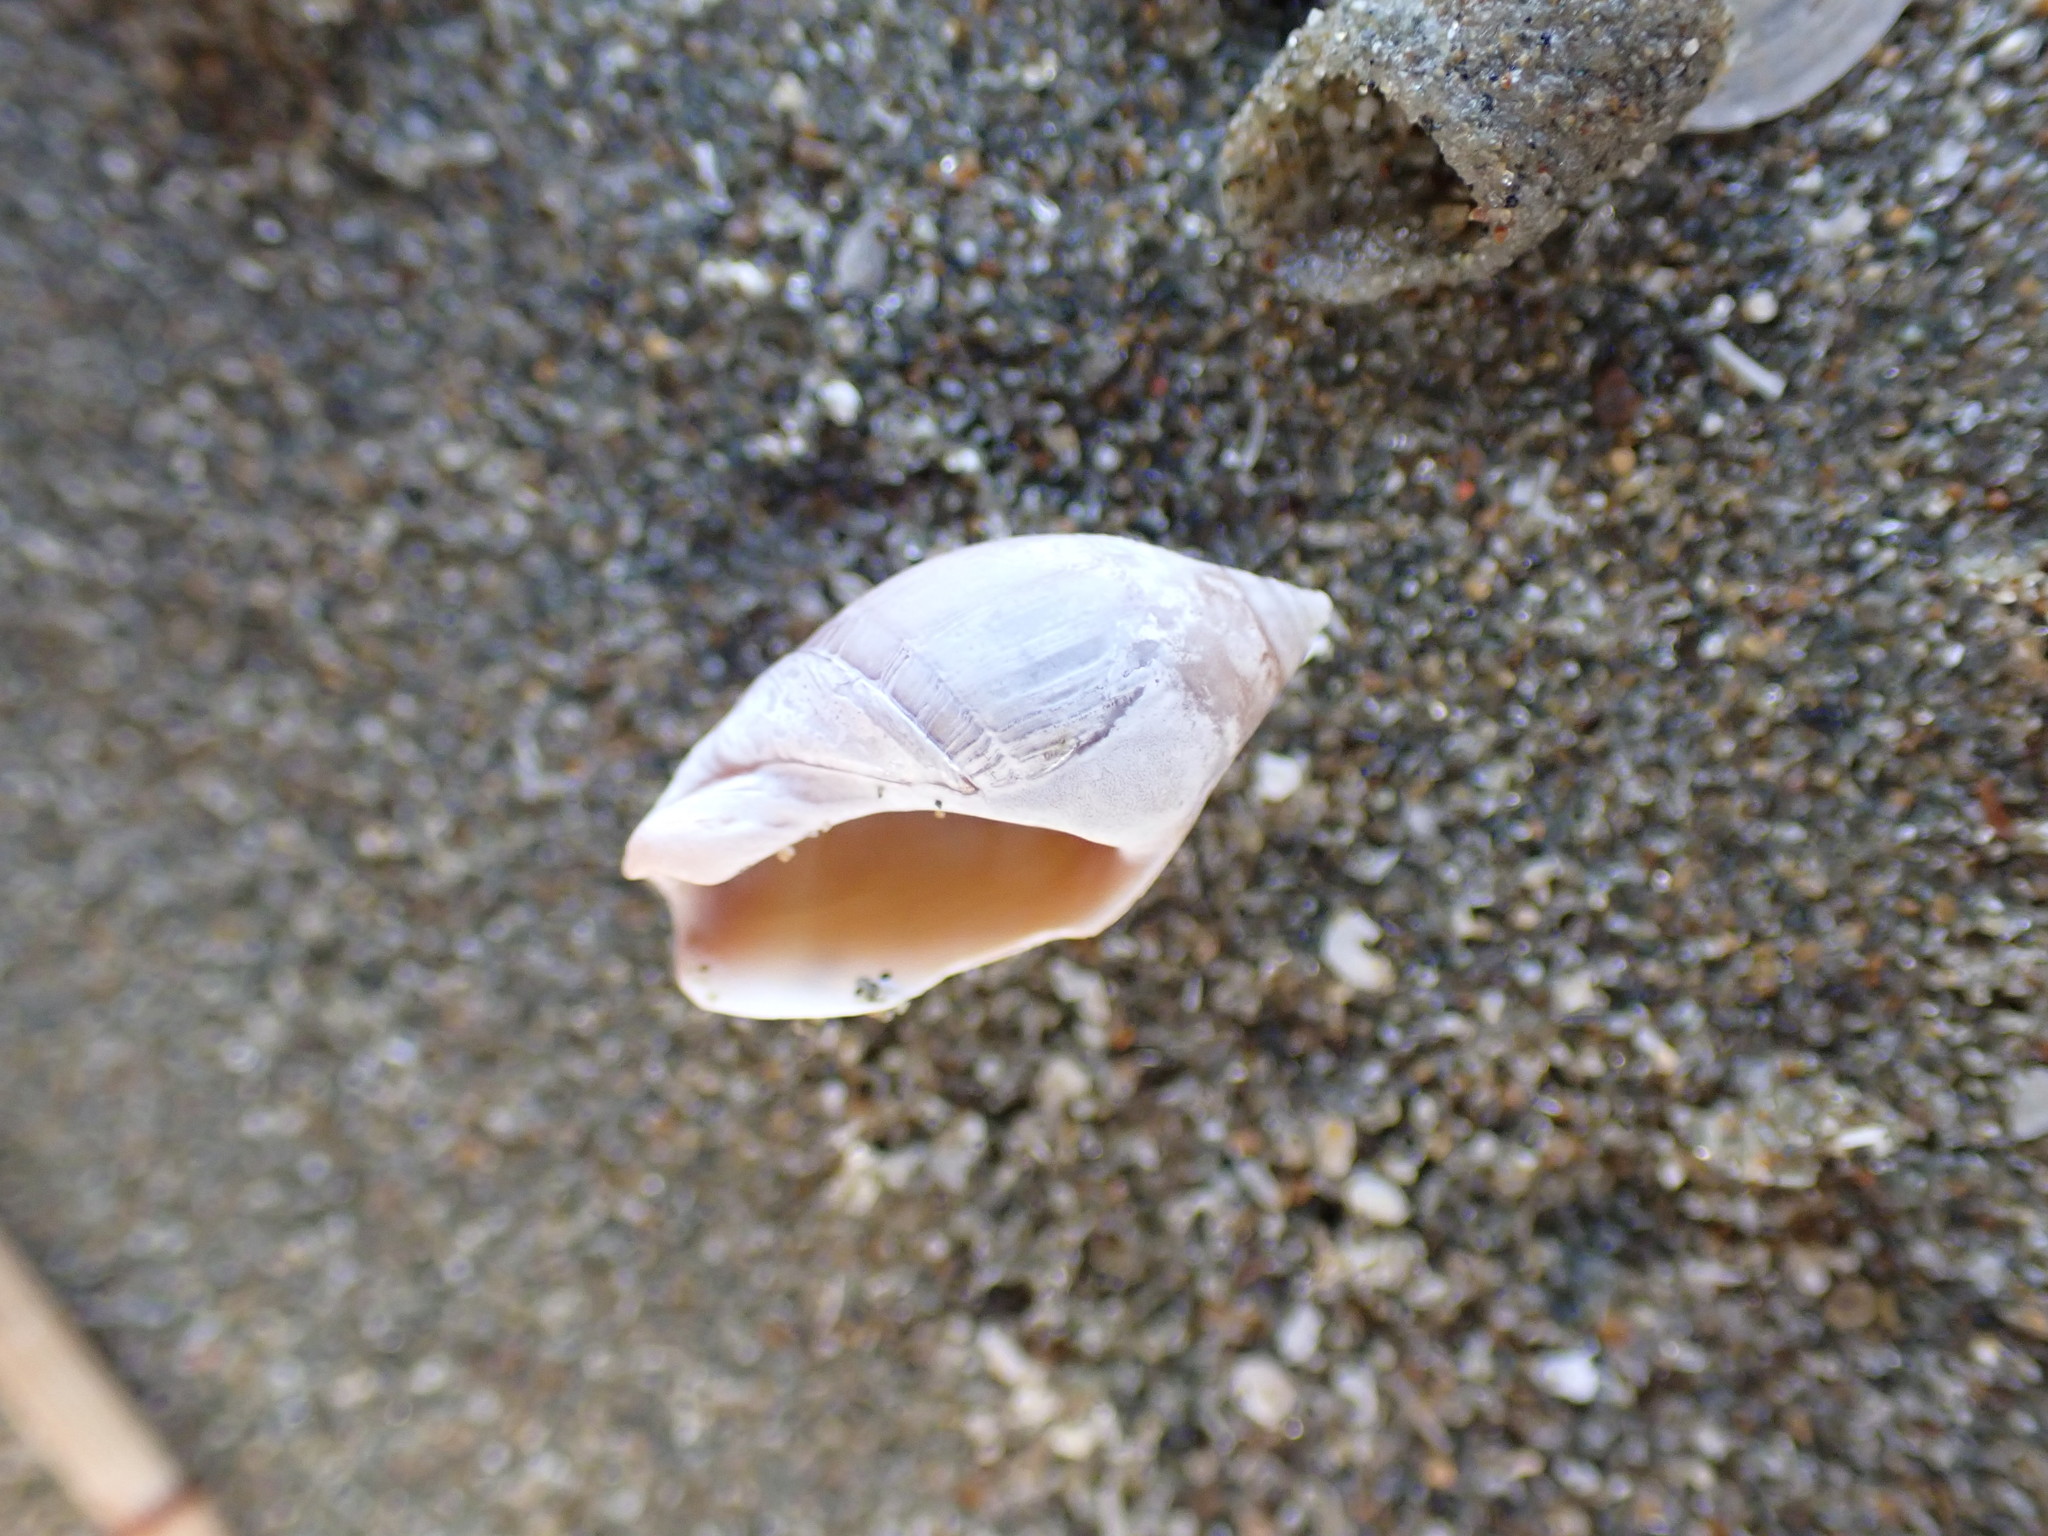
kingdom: Animalia
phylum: Mollusca
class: Gastropoda
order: Neogastropoda
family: Ancillariidae
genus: Amalda
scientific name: Amalda australis
